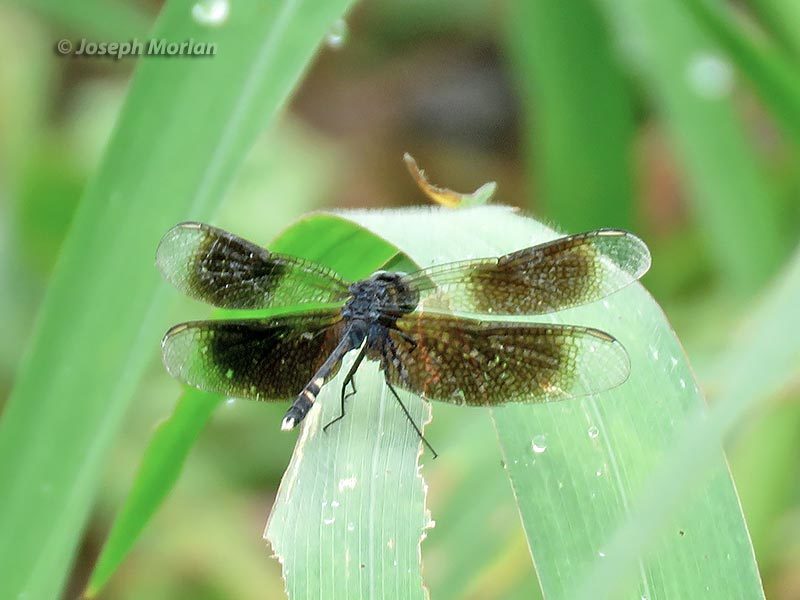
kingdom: Animalia
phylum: Arthropoda
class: Insecta
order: Odonata
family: Libellulidae
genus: Erythrodiplax
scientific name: Erythrodiplax attenuata
